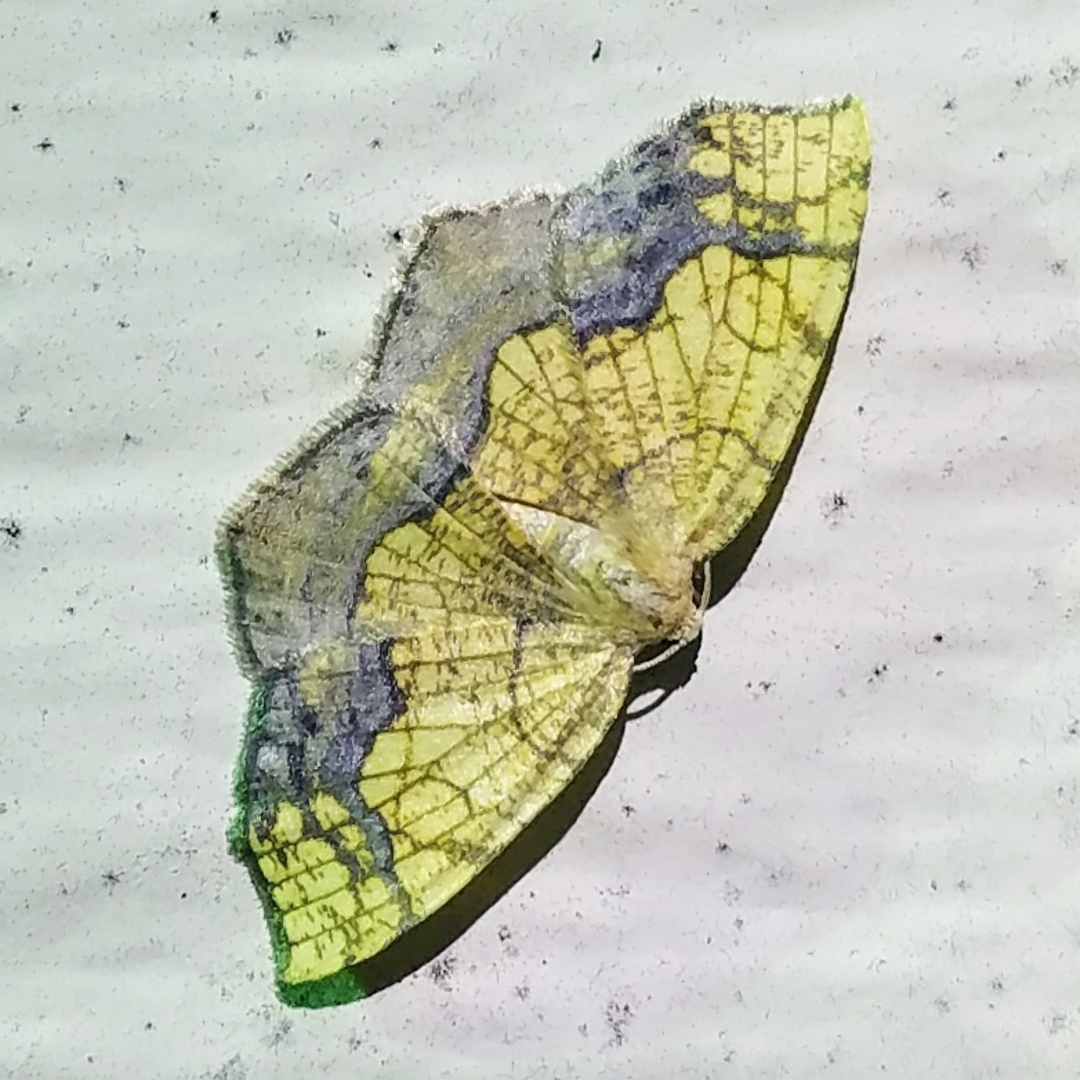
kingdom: Animalia
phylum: Arthropoda
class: Insecta
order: Lepidoptera
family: Geometridae
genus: Nematocampa
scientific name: Nematocampa resistaria
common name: Horned spanworm moth
